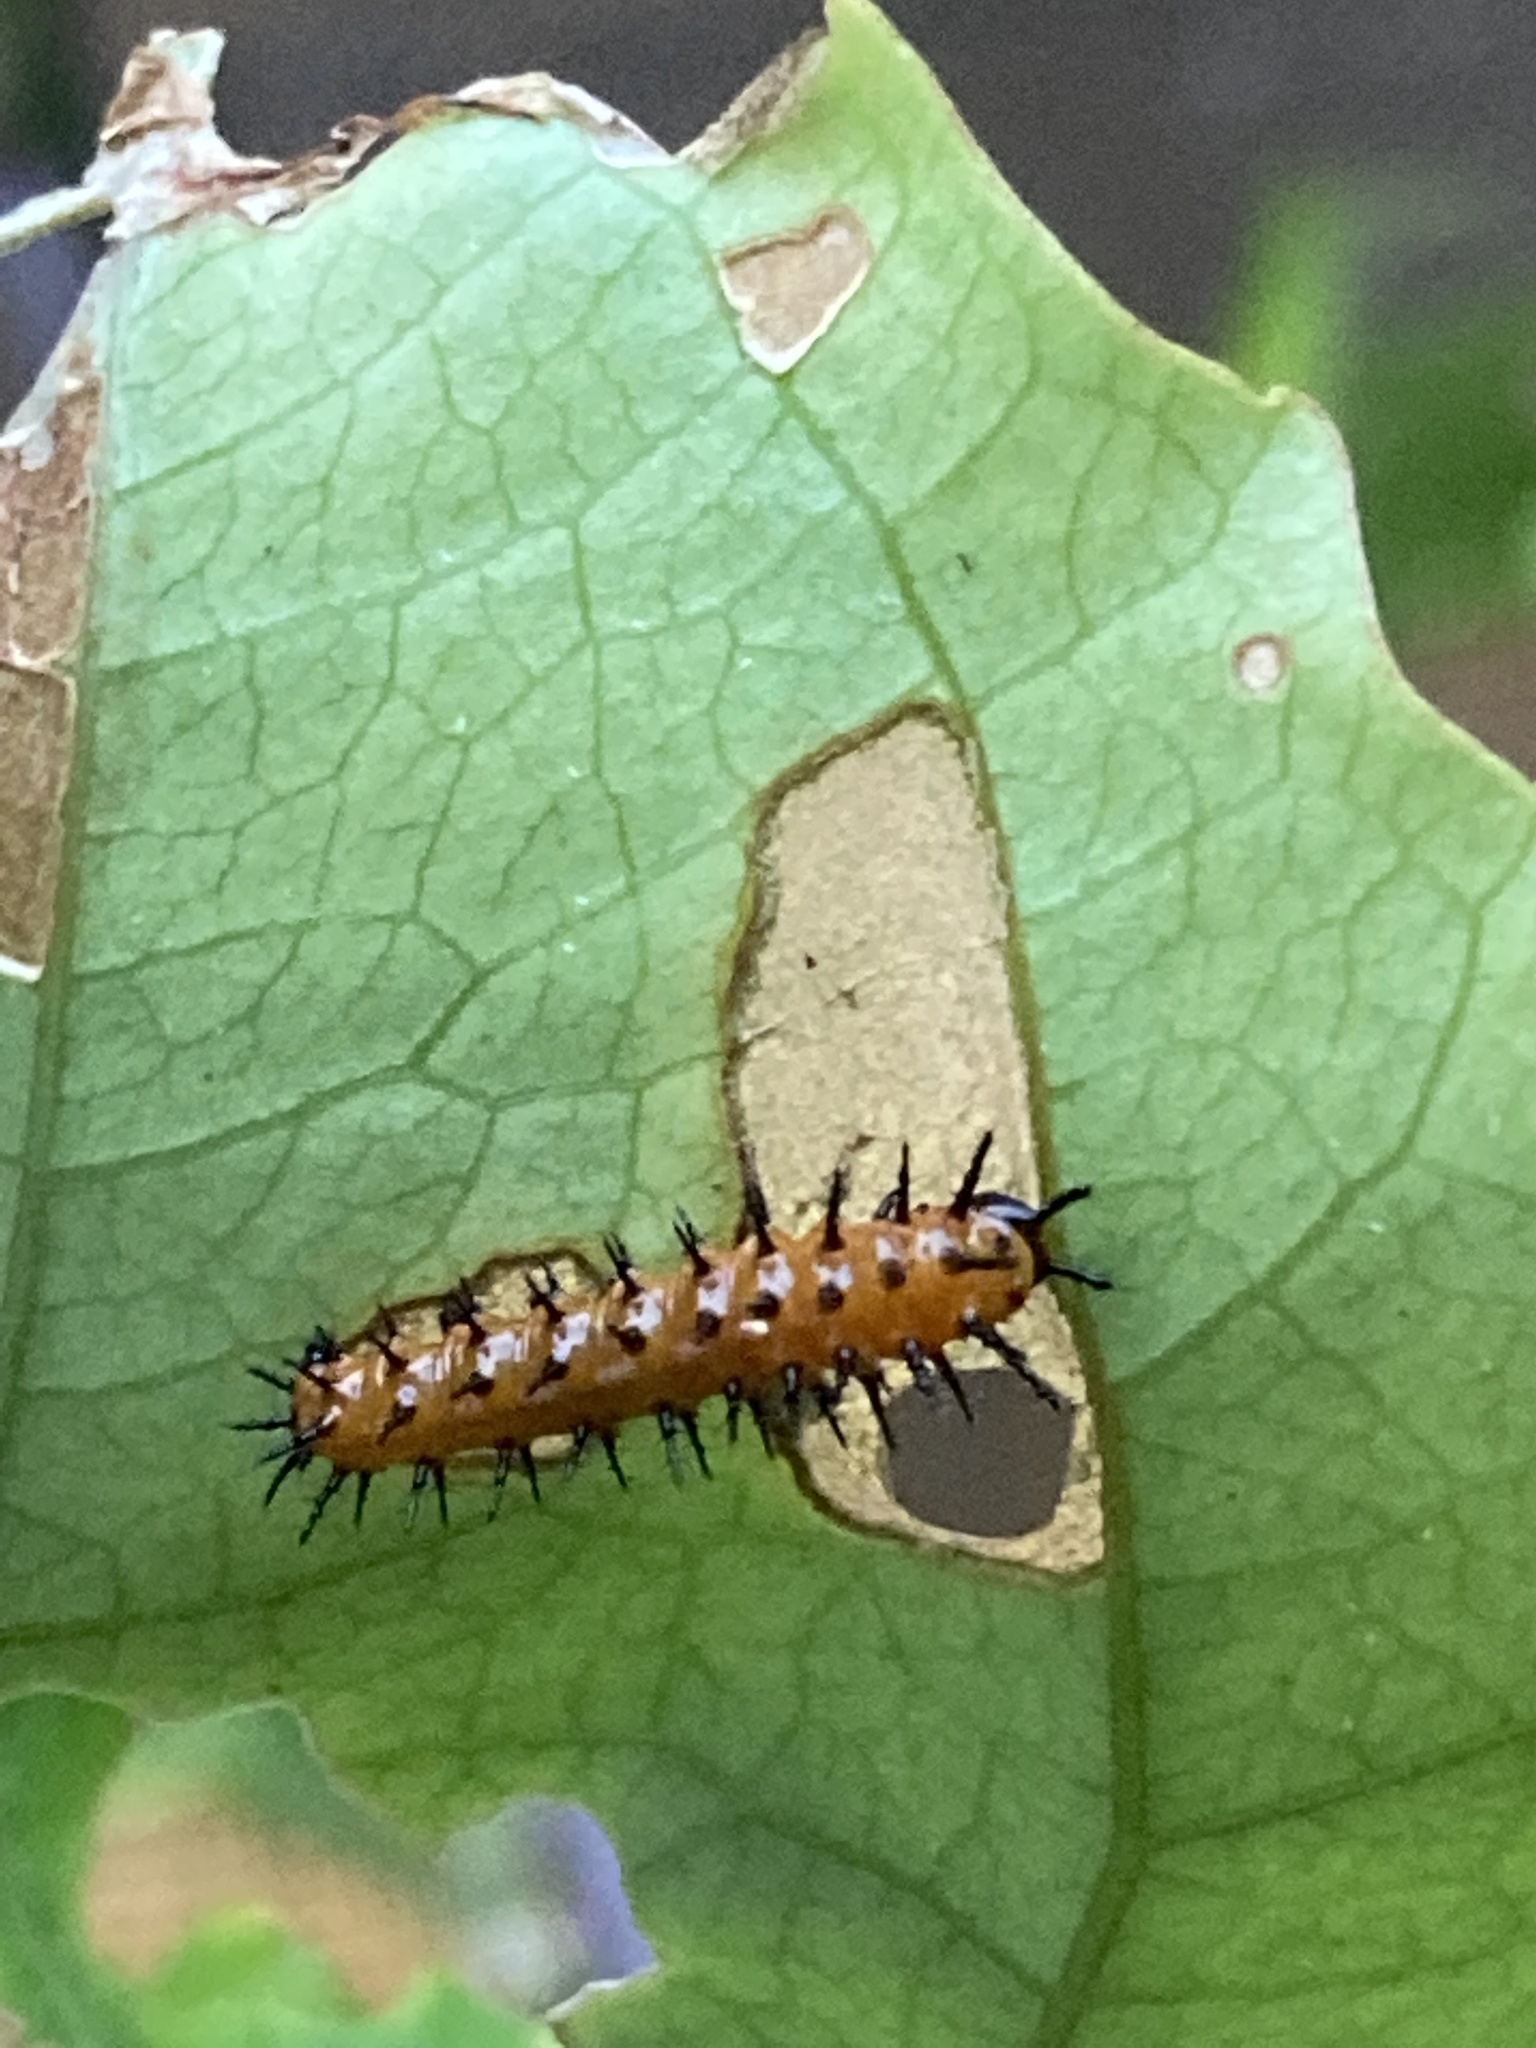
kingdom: Animalia
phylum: Arthropoda
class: Insecta
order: Lepidoptera
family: Nymphalidae
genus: Dione
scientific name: Dione vanillae
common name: Gulf fritillary
